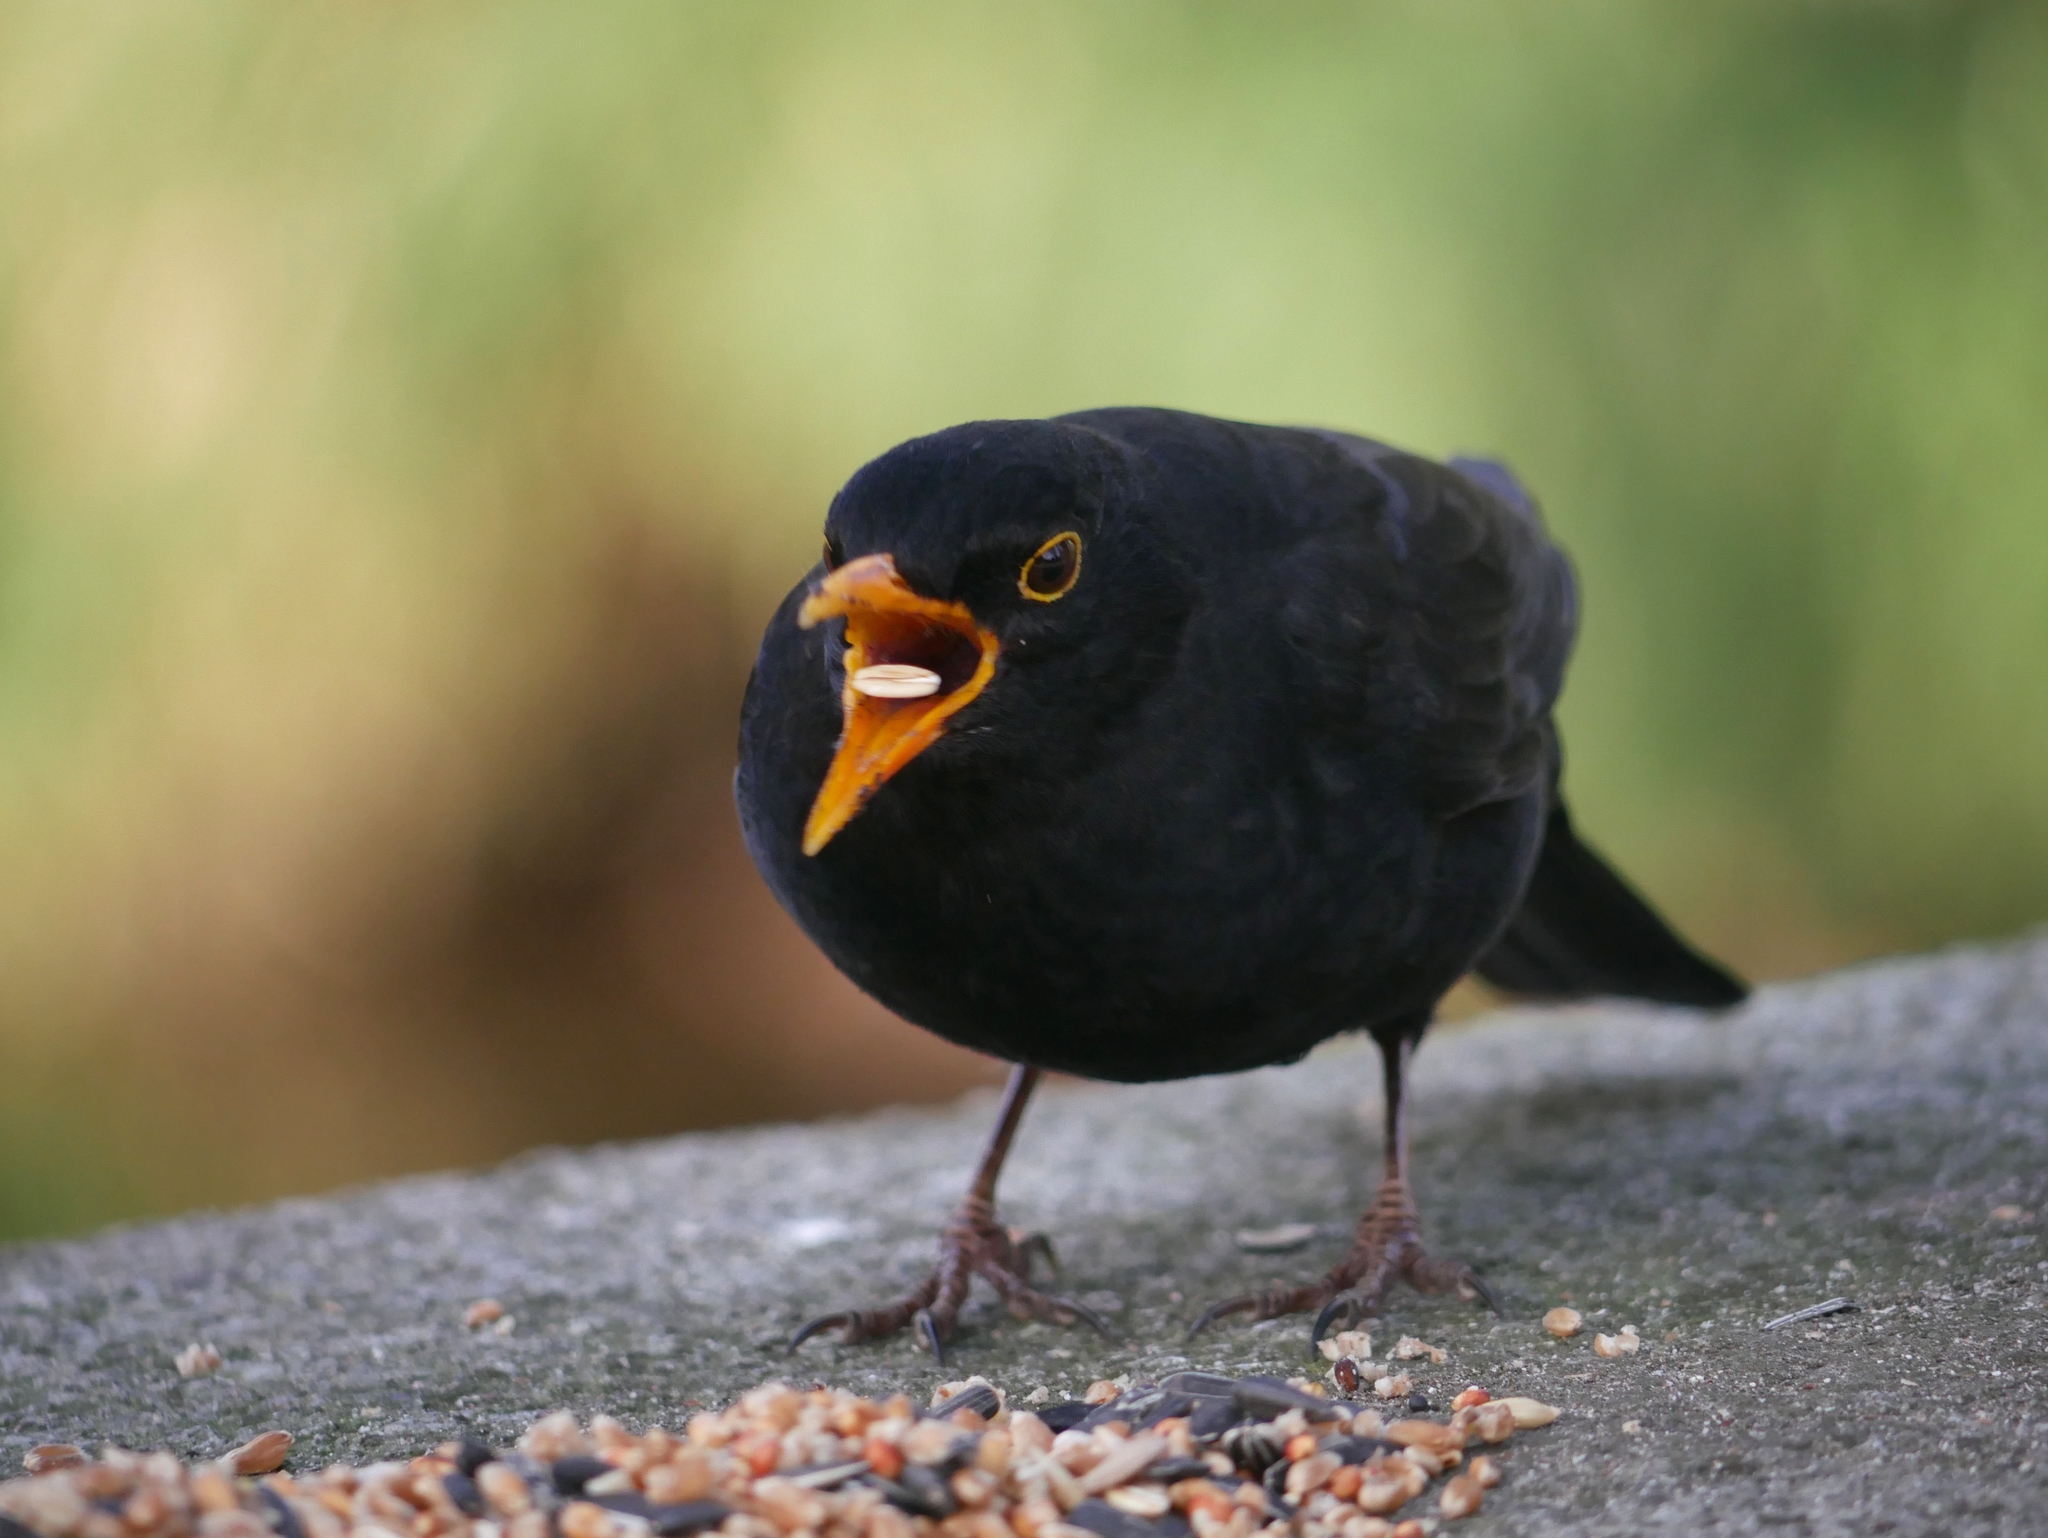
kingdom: Animalia
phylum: Chordata
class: Aves
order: Passeriformes
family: Turdidae
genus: Turdus
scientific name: Turdus merula
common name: Common blackbird
